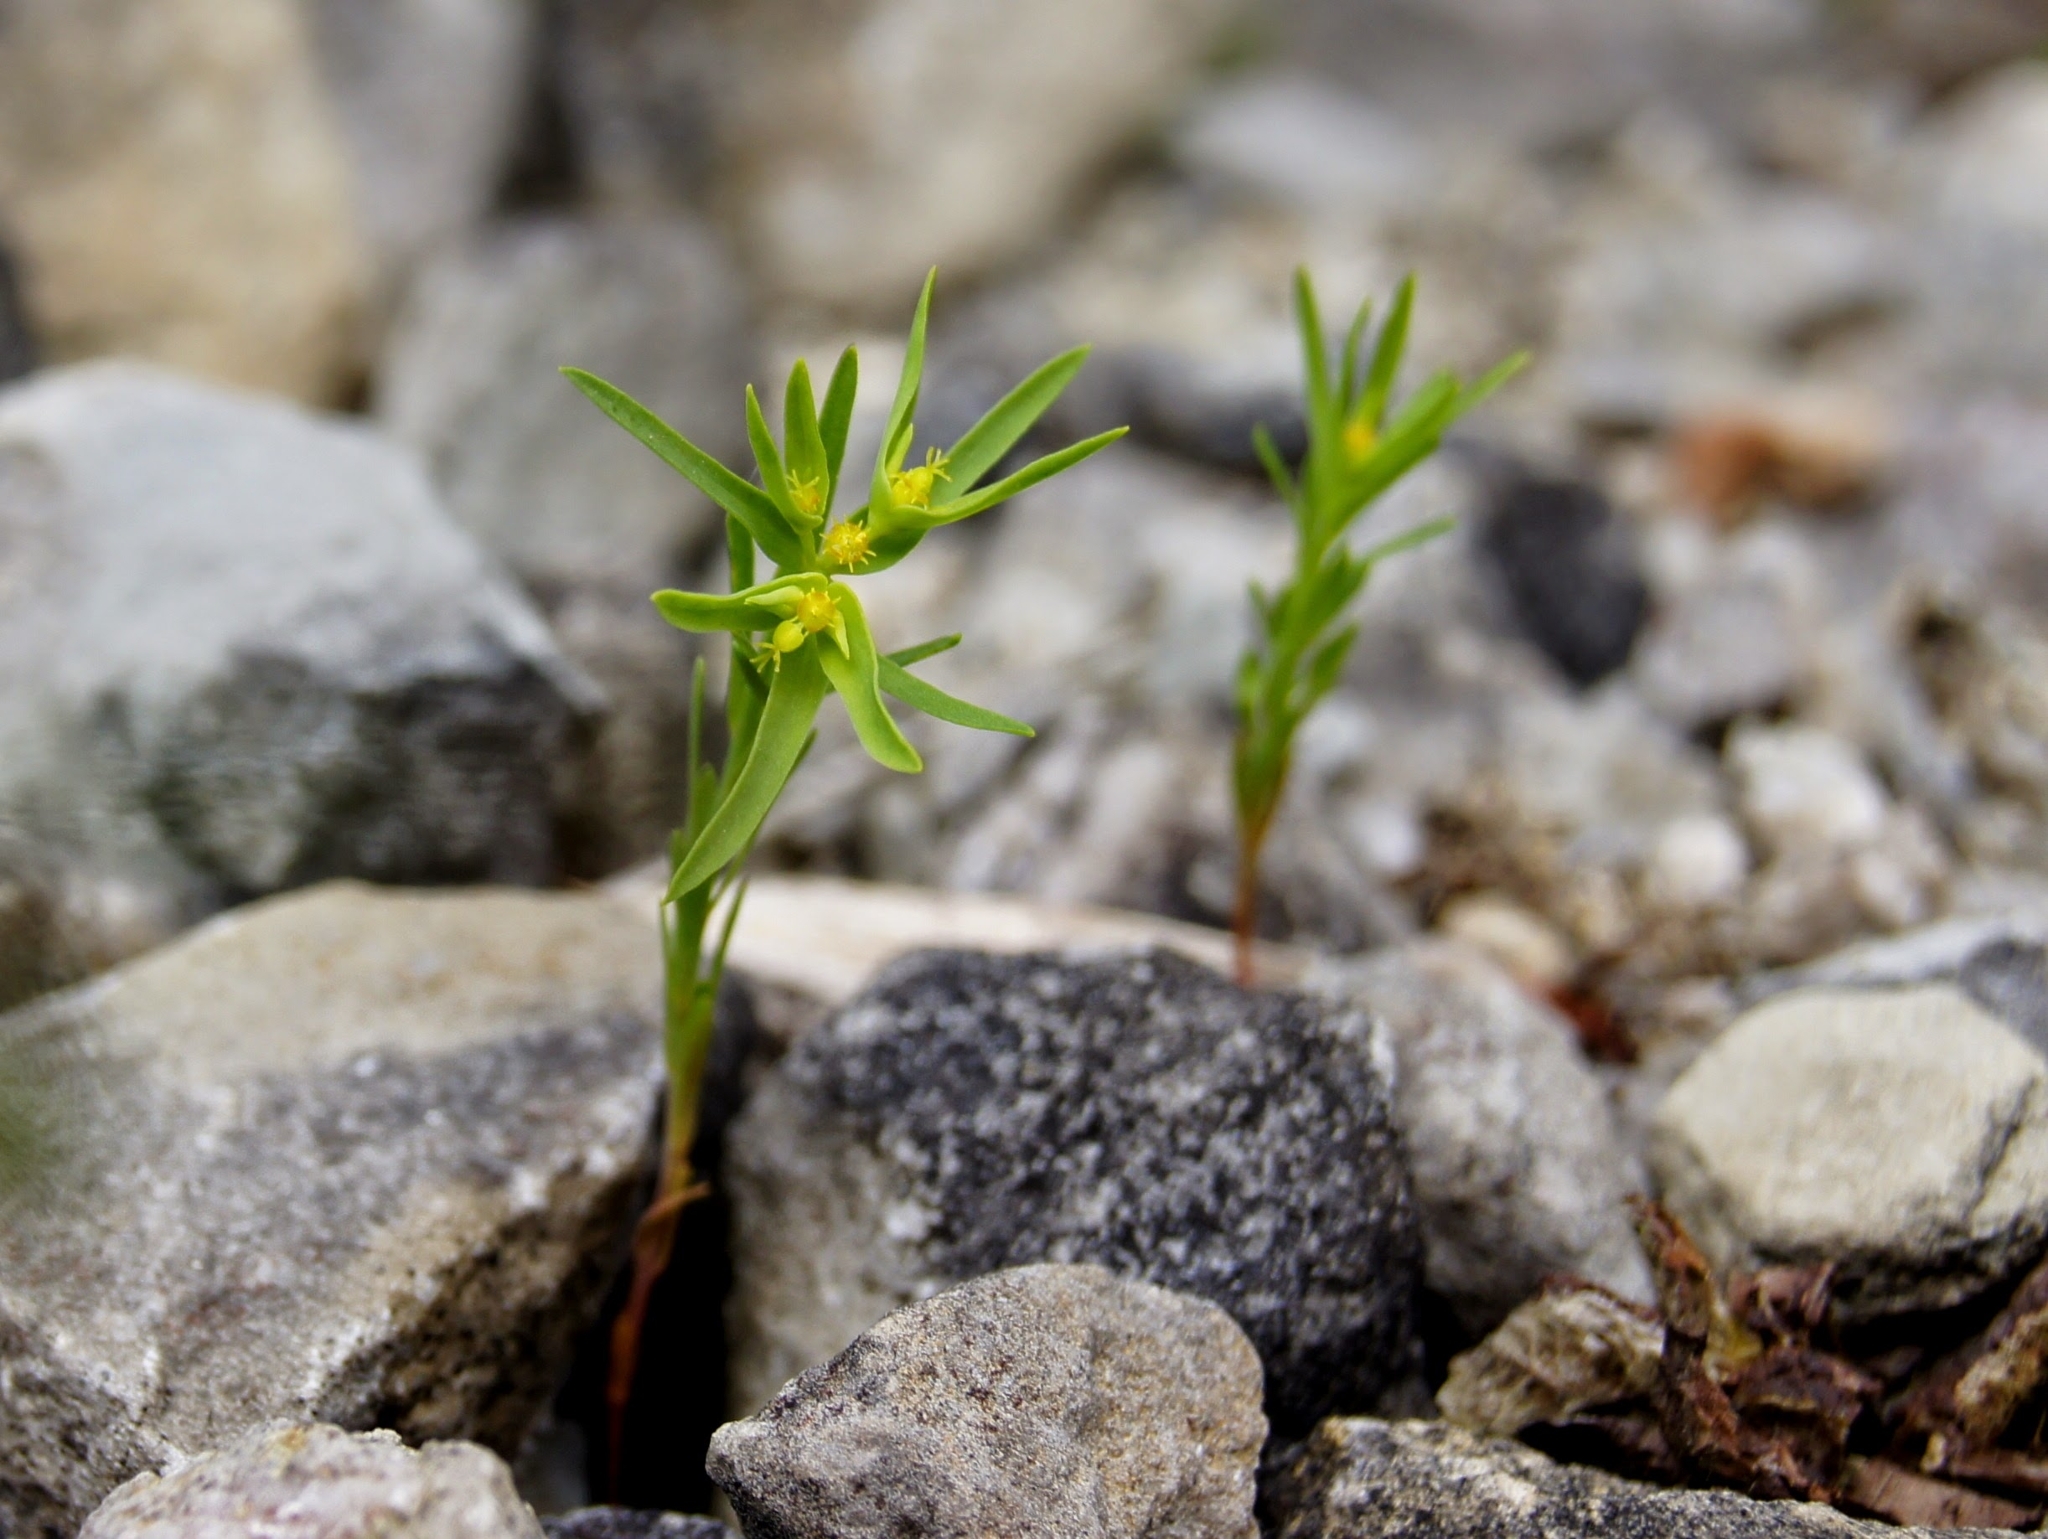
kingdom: Plantae
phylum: Tracheophyta
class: Magnoliopsida
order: Malpighiales
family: Euphorbiaceae
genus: Euphorbia
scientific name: Euphorbia exigua
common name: Dwarf spurge
